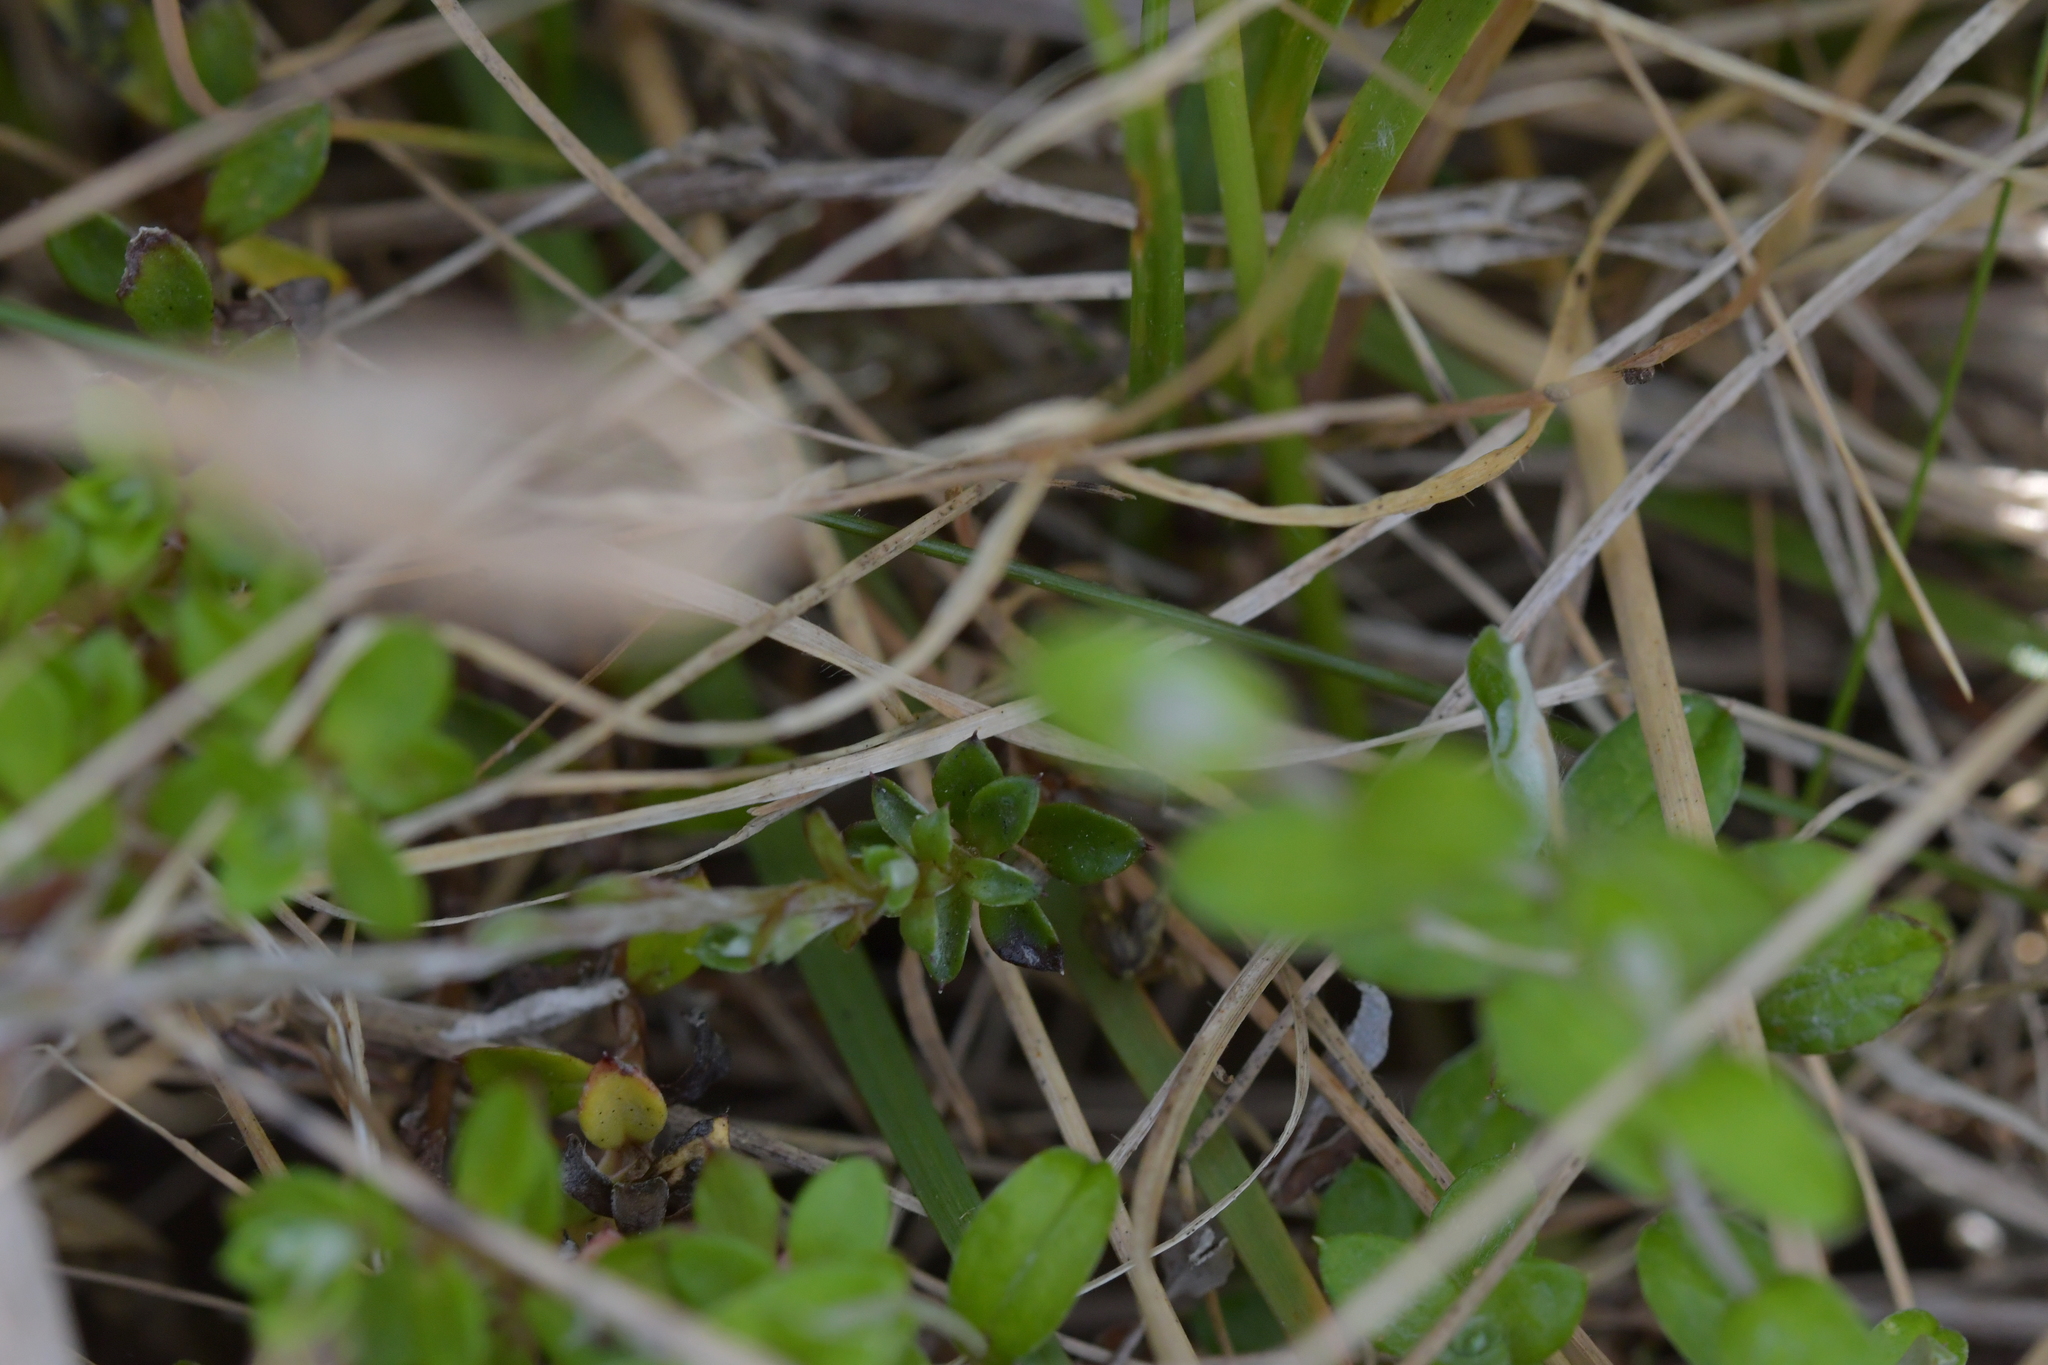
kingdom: Plantae
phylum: Tracheophyta
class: Magnoliopsida
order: Asterales
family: Asteraceae
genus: Anaphalioides
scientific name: Anaphalioides bellidioides
